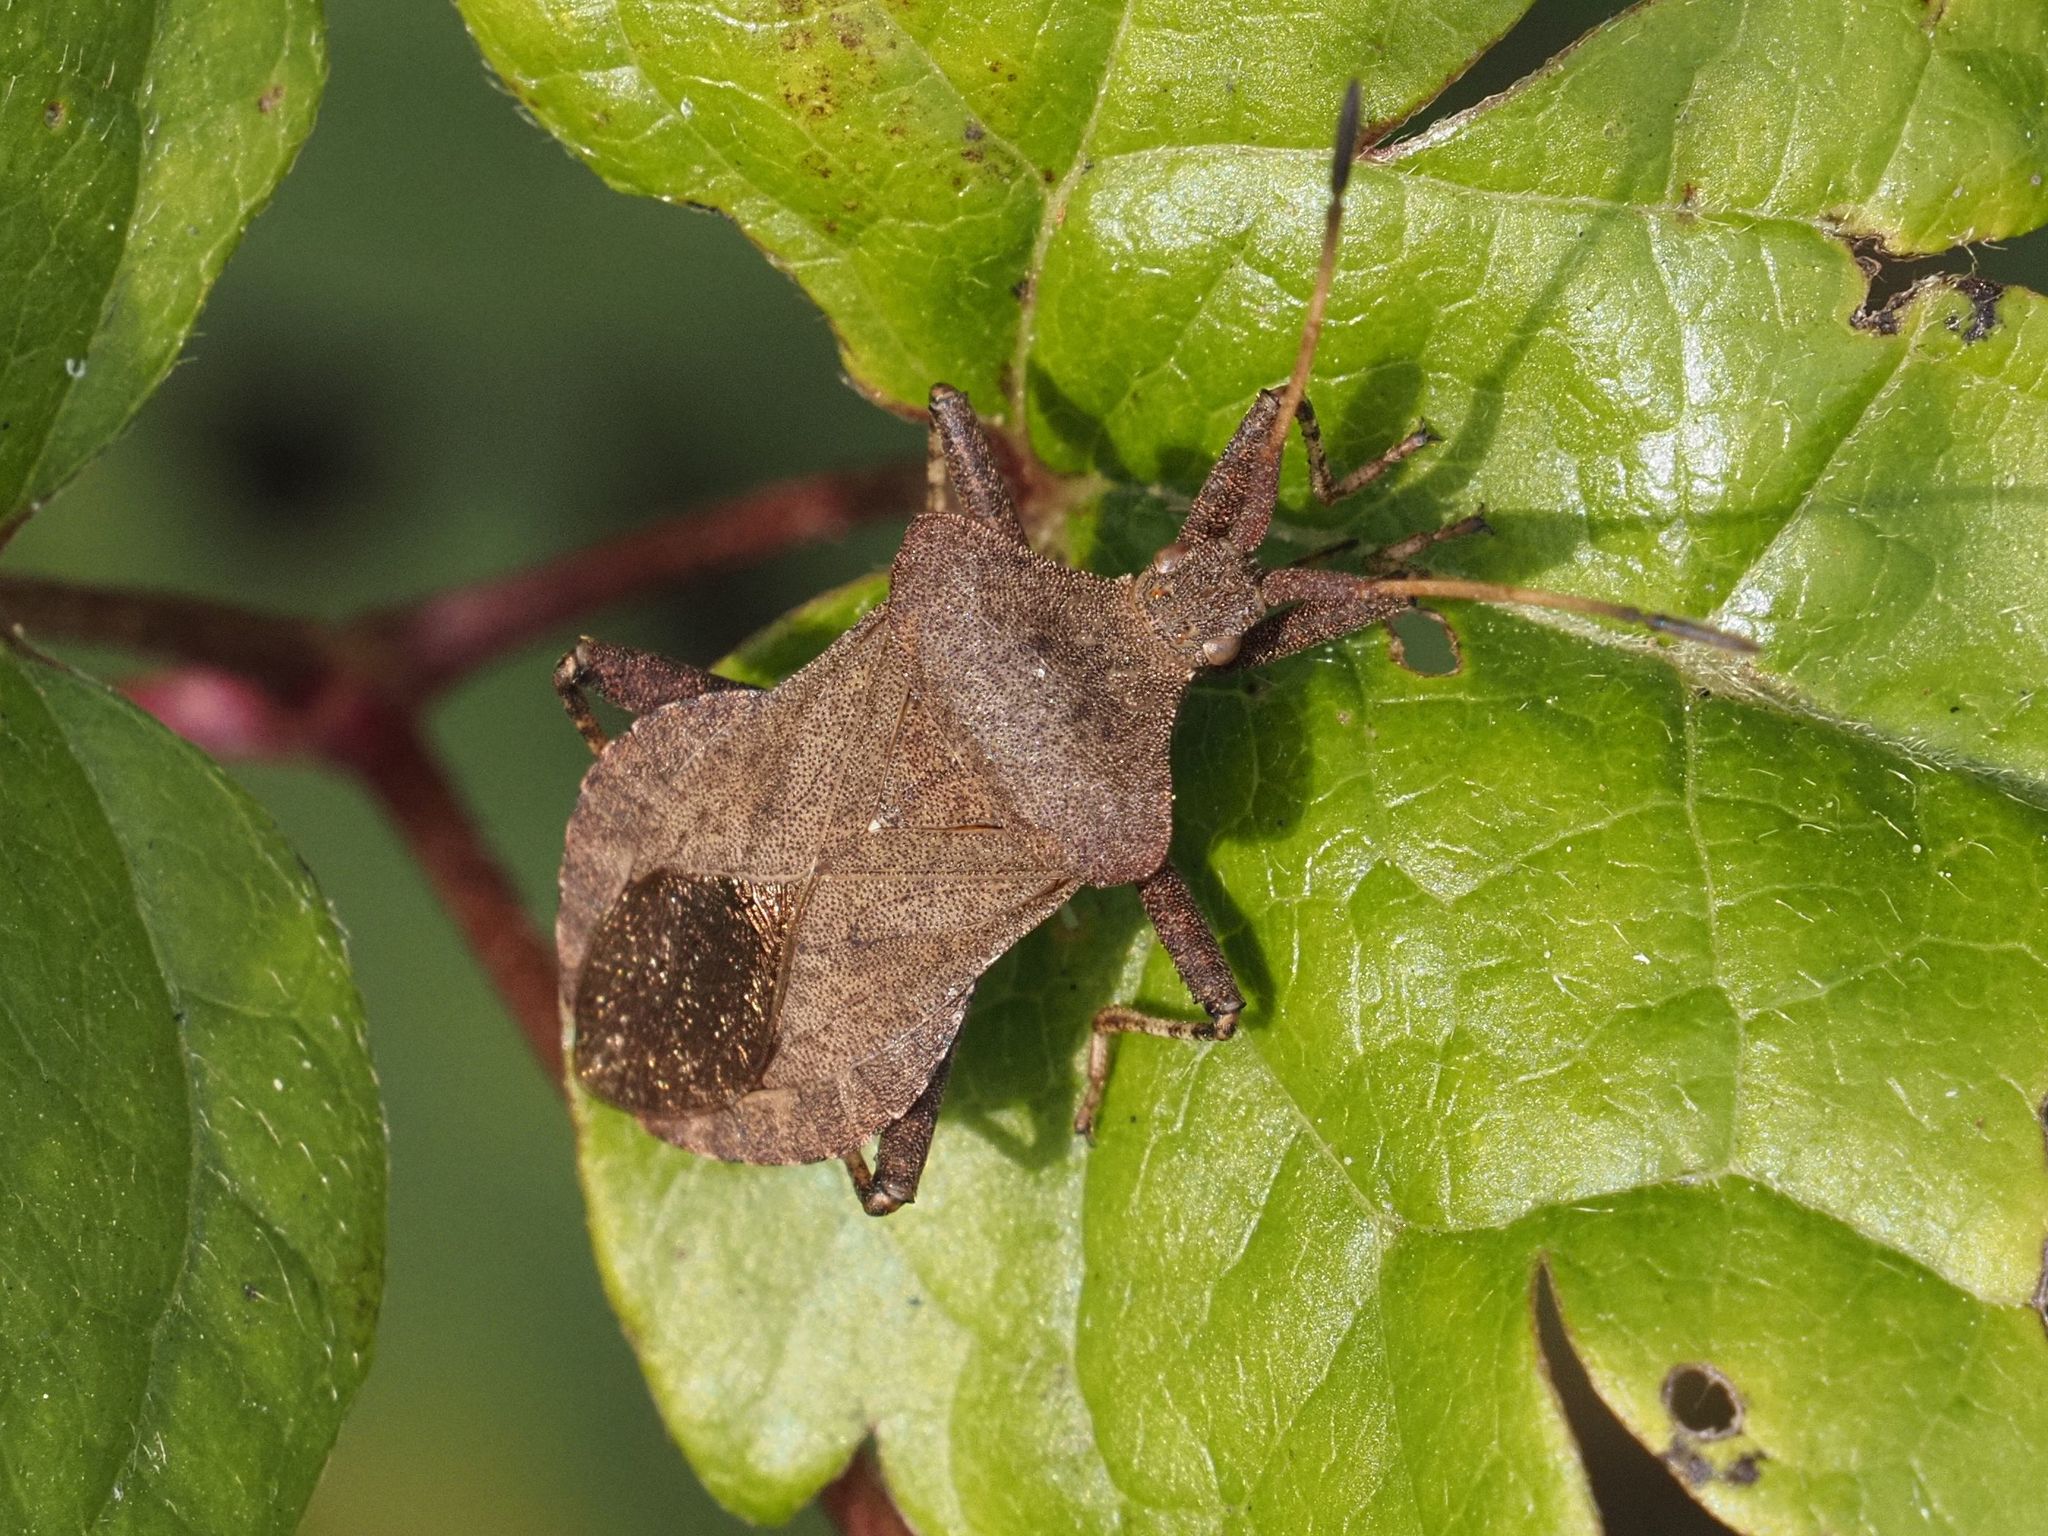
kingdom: Animalia
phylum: Arthropoda
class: Insecta
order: Hemiptera
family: Coreidae
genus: Coreus
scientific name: Coreus marginatus
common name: Dock bug
